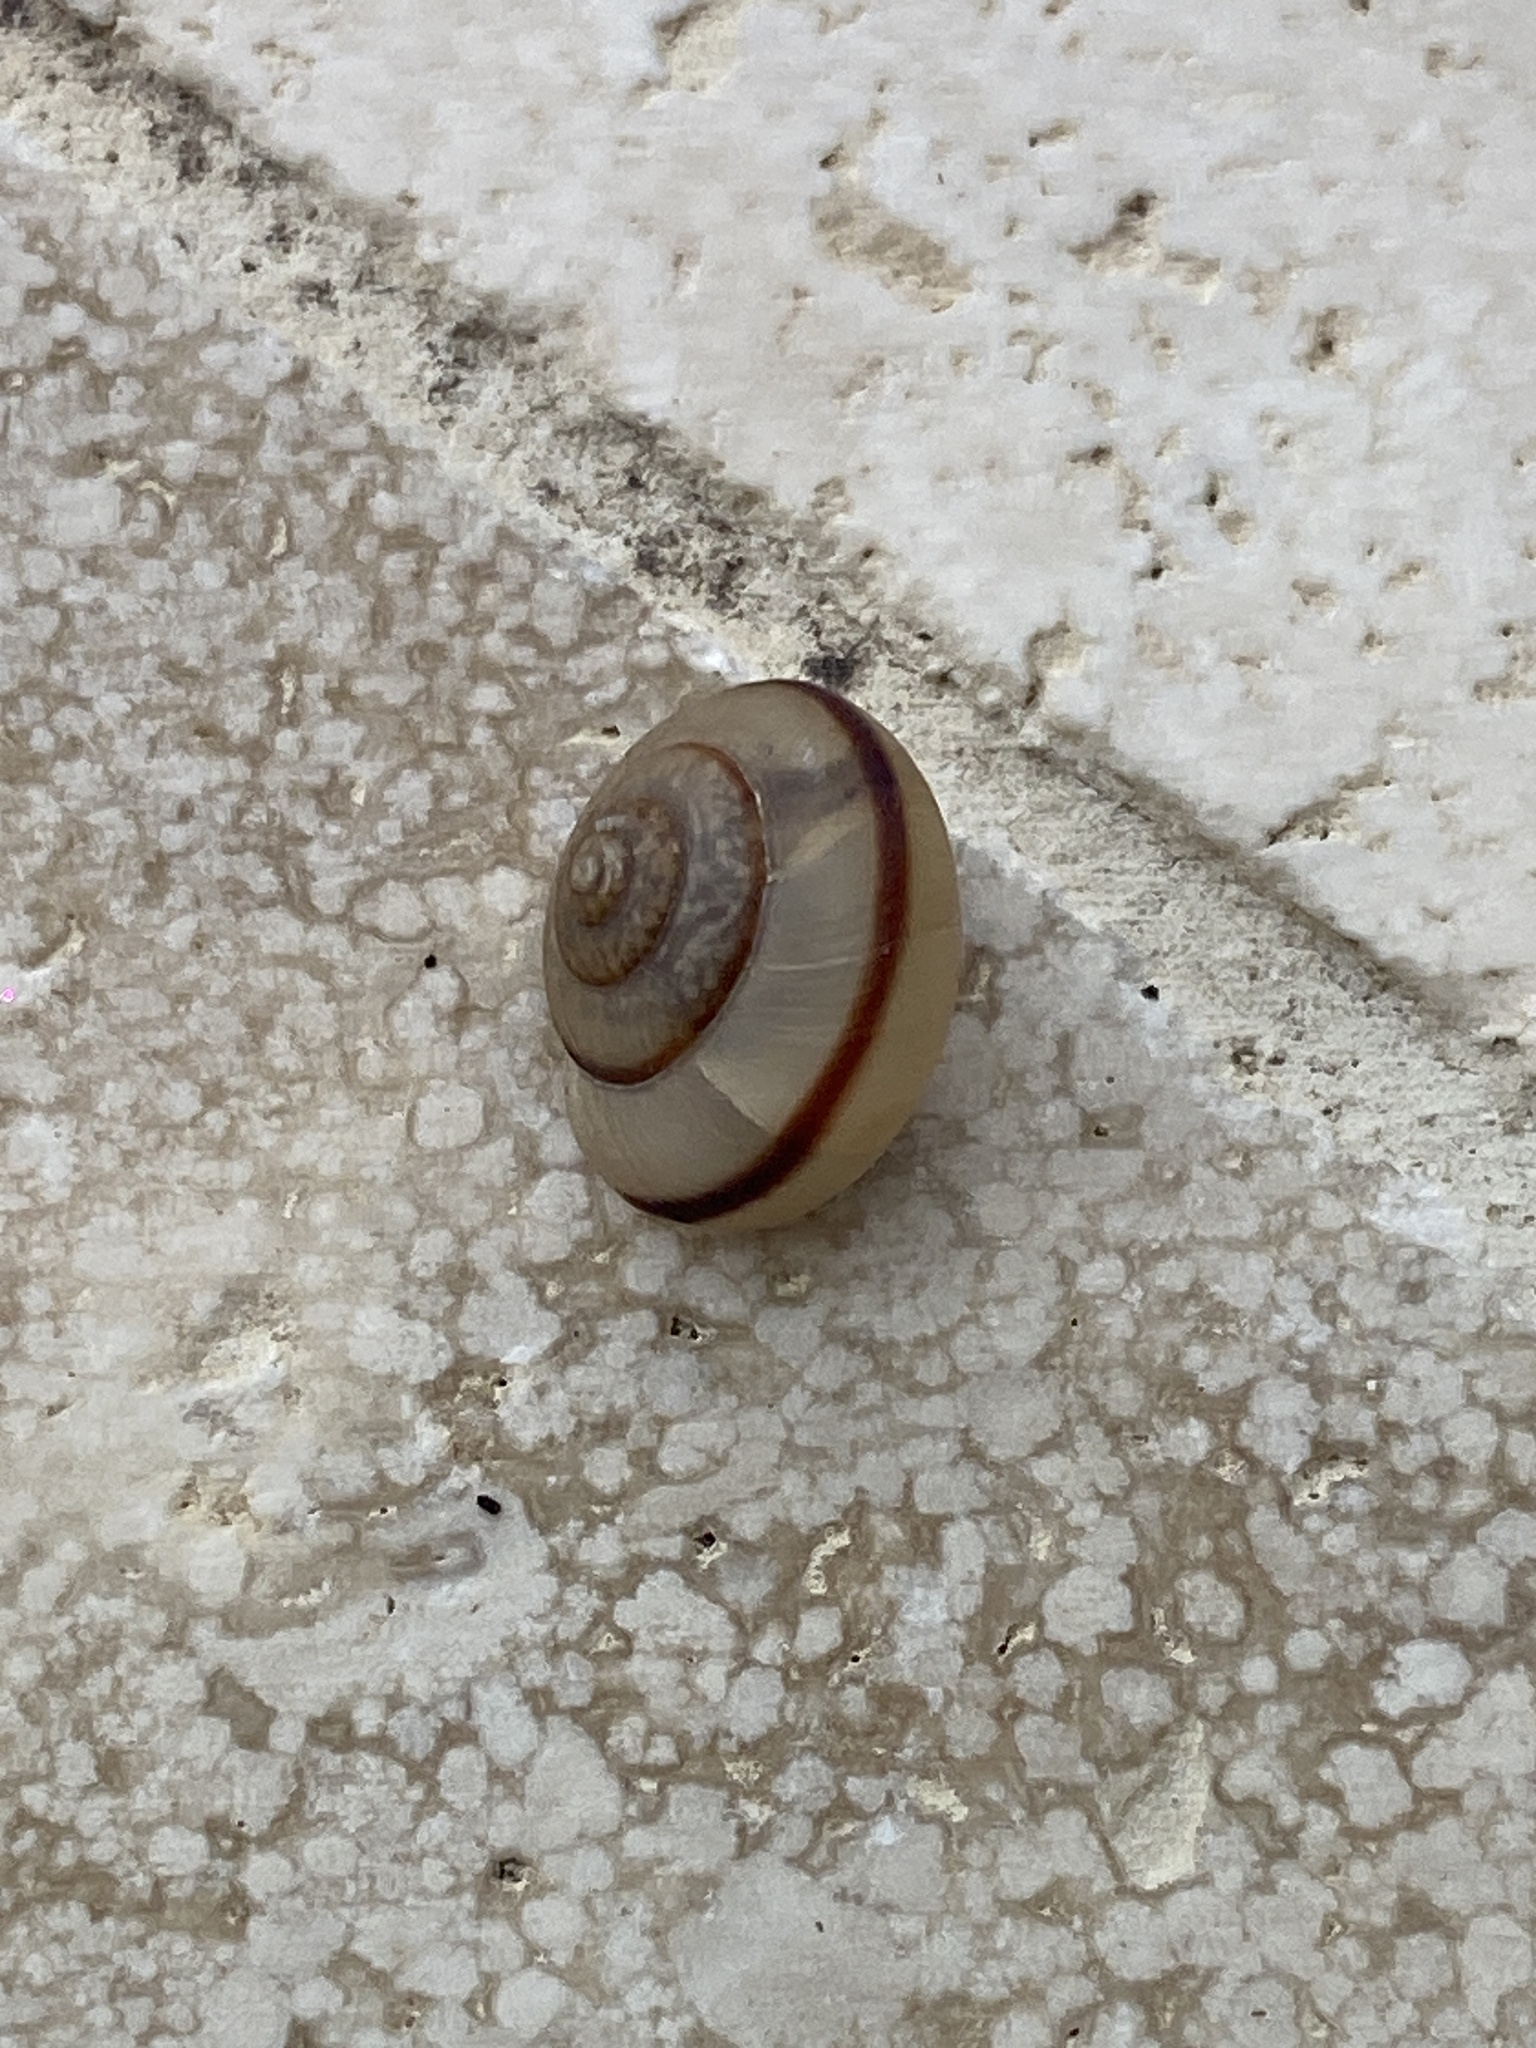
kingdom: Animalia
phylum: Mollusca
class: Gastropoda
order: Stylommatophora
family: Camaenidae
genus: Bradybaena
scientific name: Bradybaena similaris
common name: Asian trampsnail
